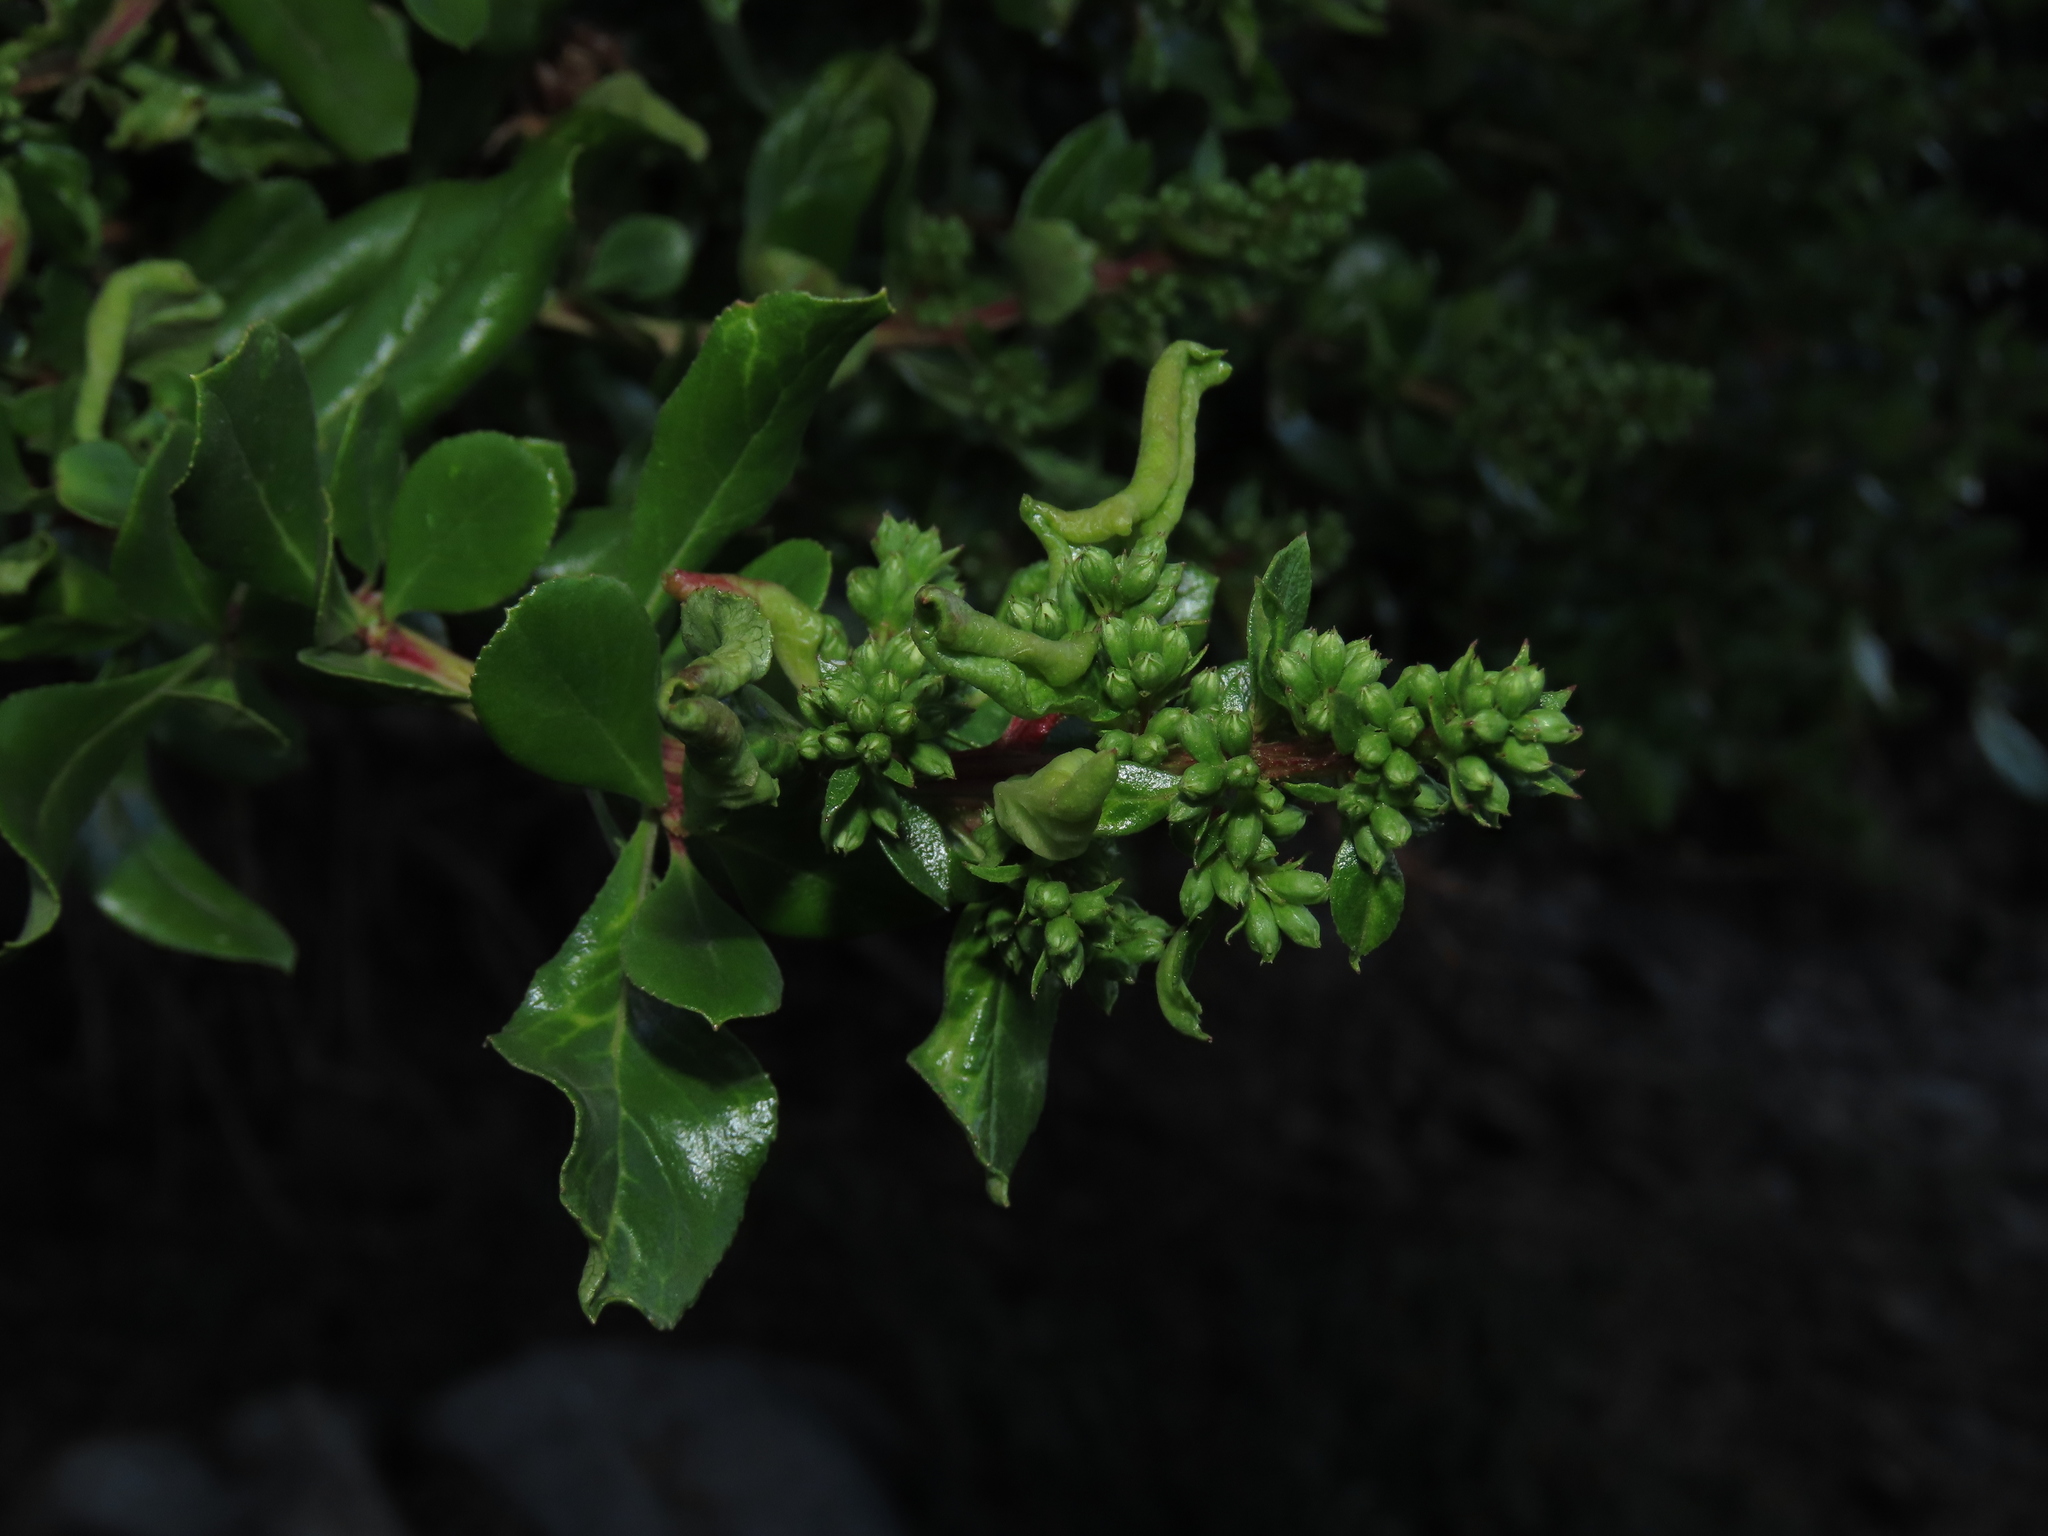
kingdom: Plantae
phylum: Tracheophyta
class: Magnoliopsida
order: Escalloniales
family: Escalloniaceae
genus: Escallonia
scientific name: Escallonia myrtoidea
